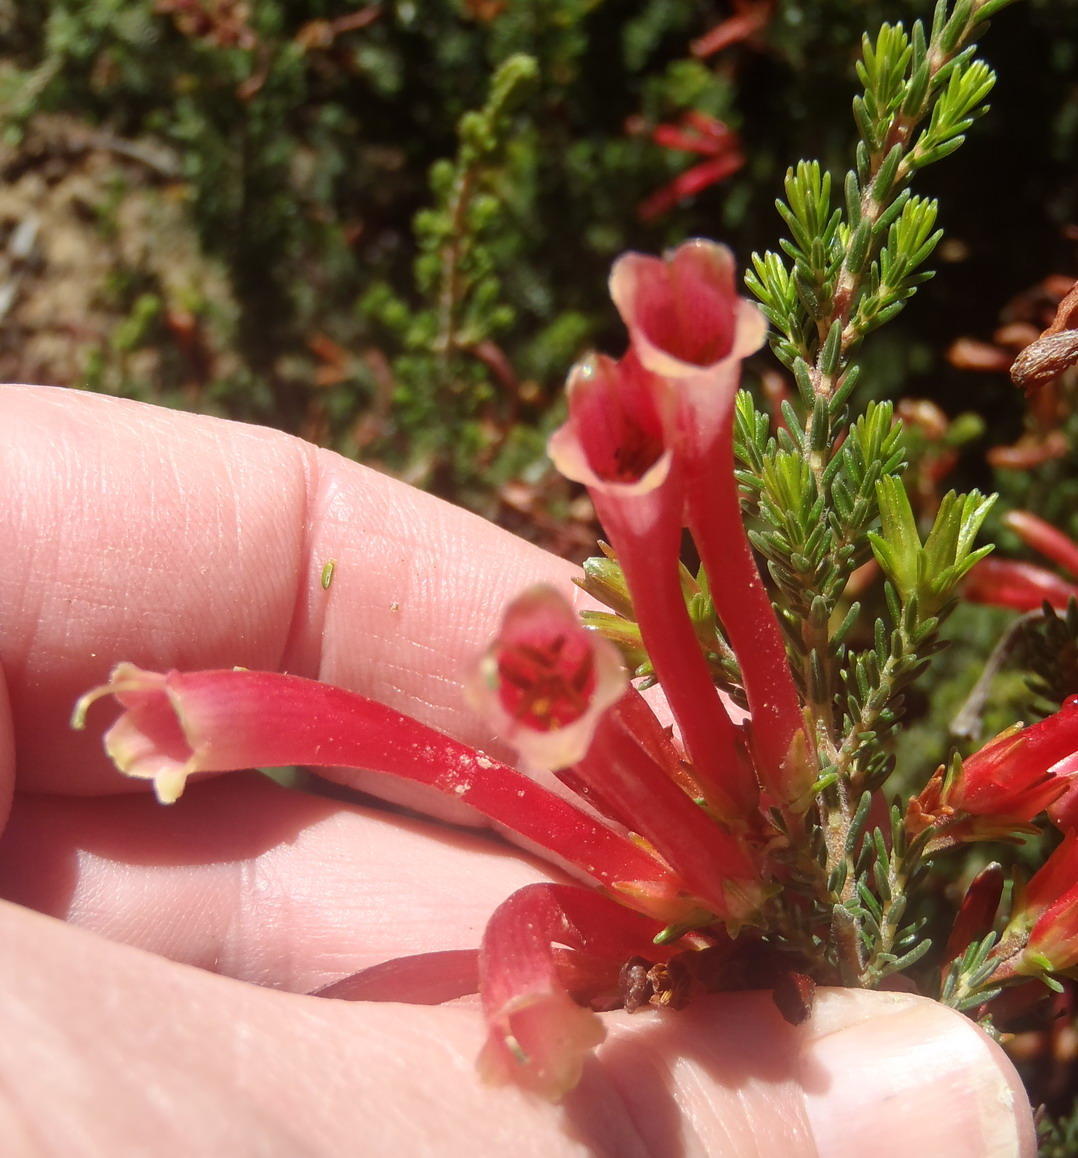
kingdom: Plantae
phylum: Tracheophyta
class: Magnoliopsida
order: Ericales
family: Ericaceae
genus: Erica
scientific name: Erica discolor
